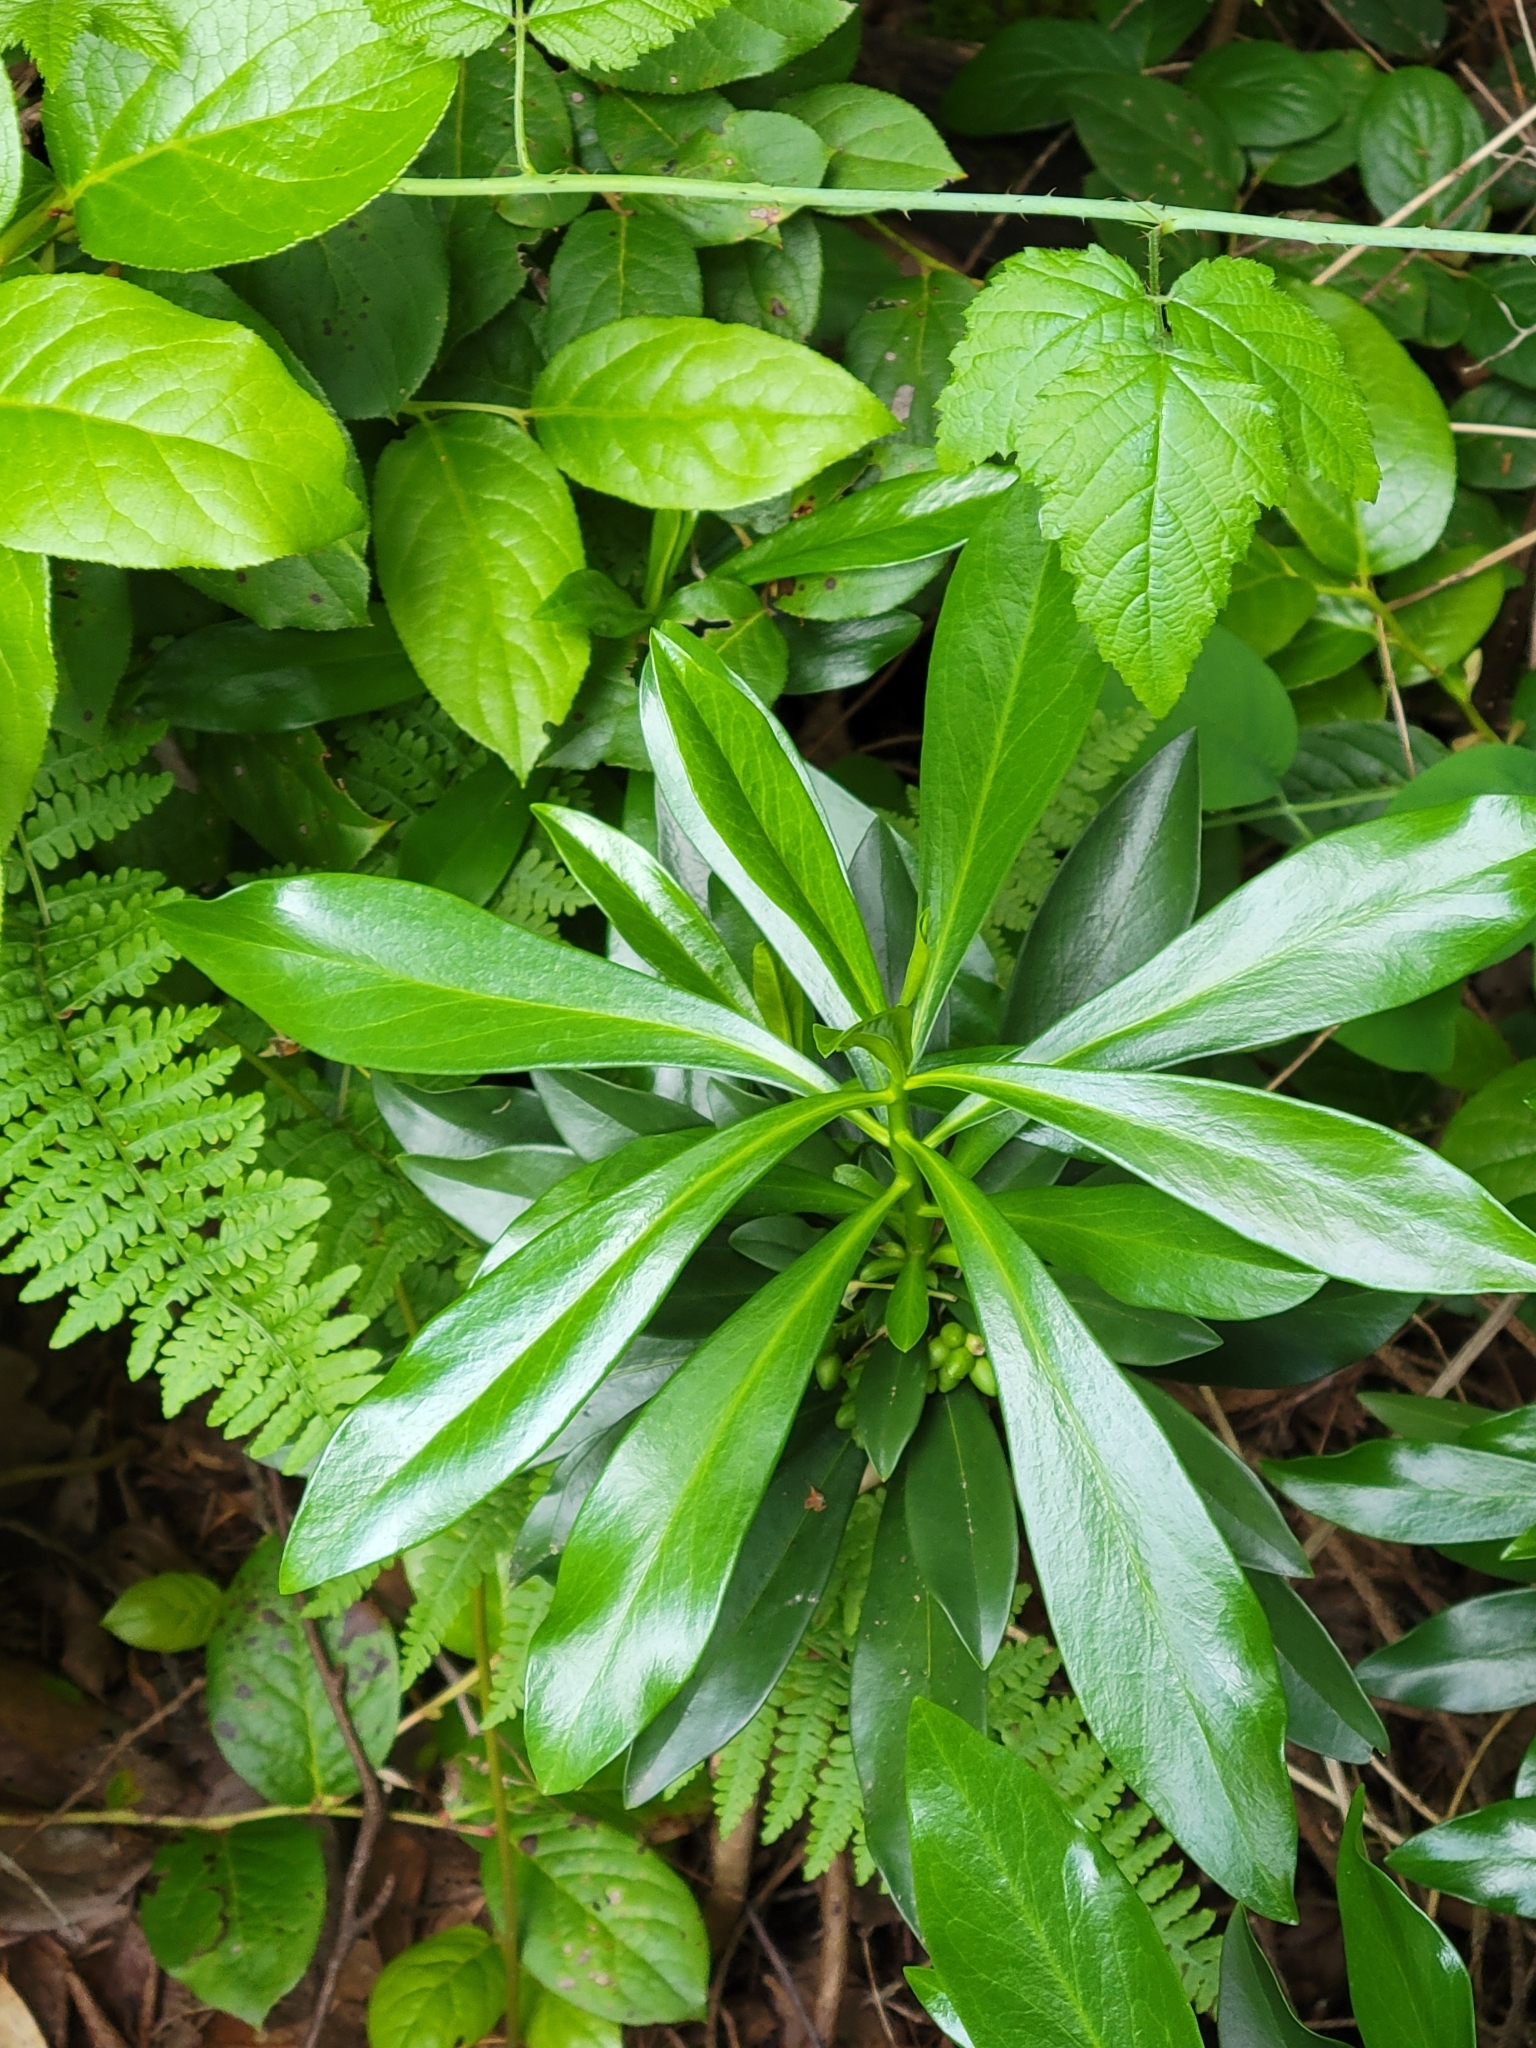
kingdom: Plantae
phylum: Tracheophyta
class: Magnoliopsida
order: Malvales
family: Thymelaeaceae
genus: Daphne
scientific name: Daphne laureola
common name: Spurge-laurel
